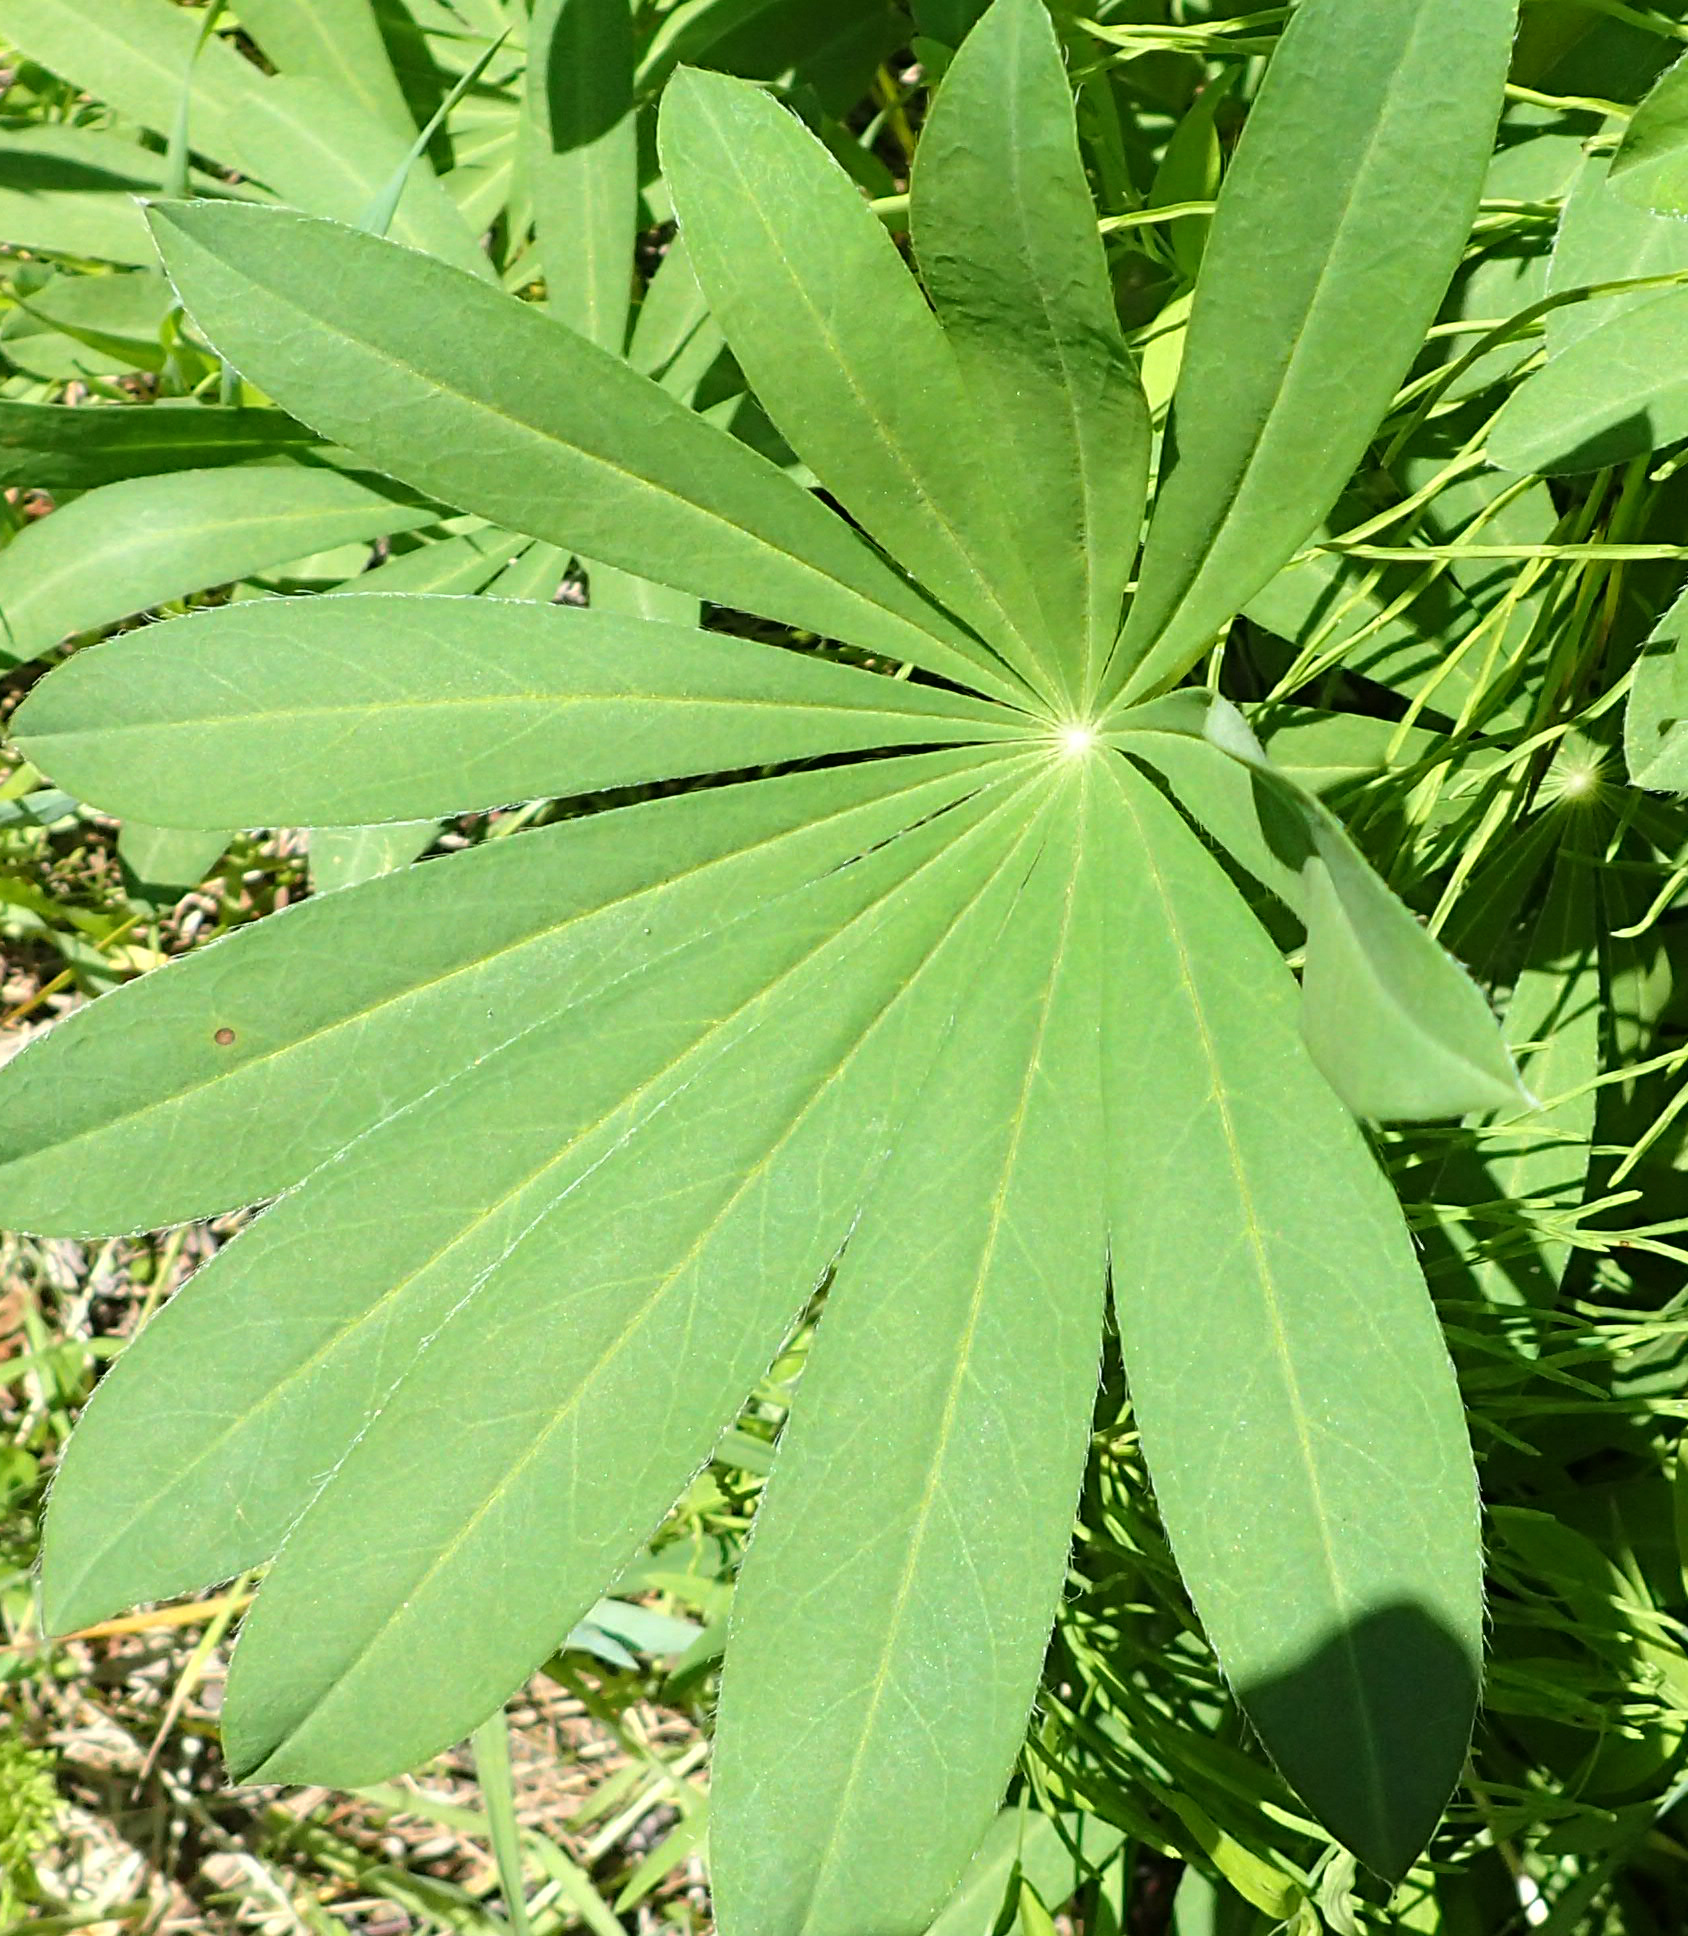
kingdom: Plantae
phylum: Tracheophyta
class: Magnoliopsida
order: Fabales
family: Fabaceae
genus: Lupinus
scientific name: Lupinus polyphyllus
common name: Garden lupin
